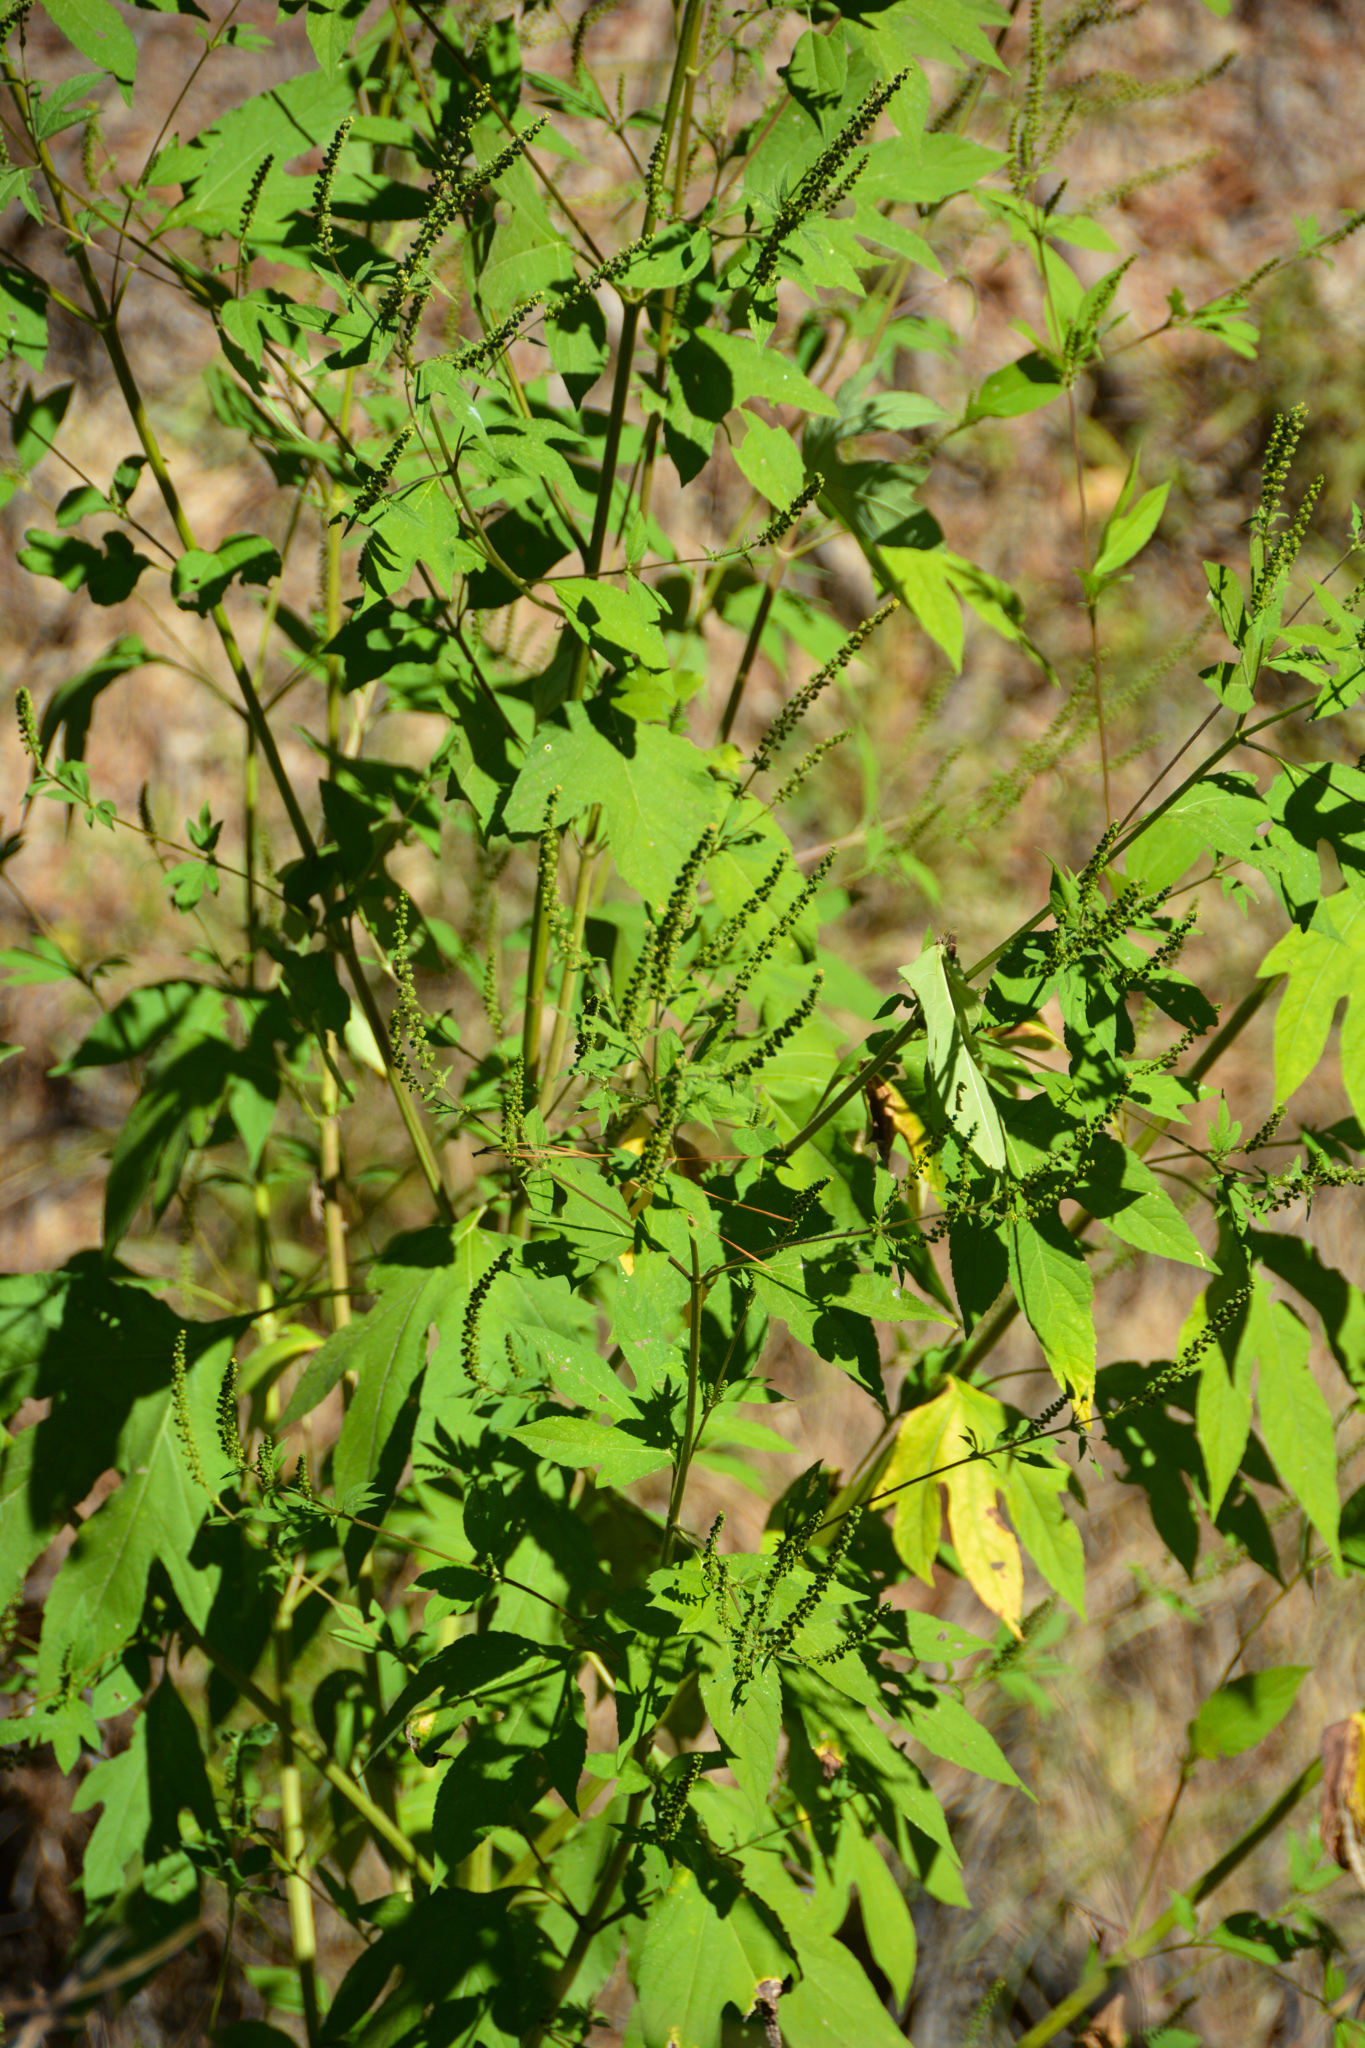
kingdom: Plantae
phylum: Tracheophyta
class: Magnoliopsida
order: Asterales
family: Asteraceae
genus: Ambrosia
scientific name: Ambrosia trifida
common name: Giant ragweed
